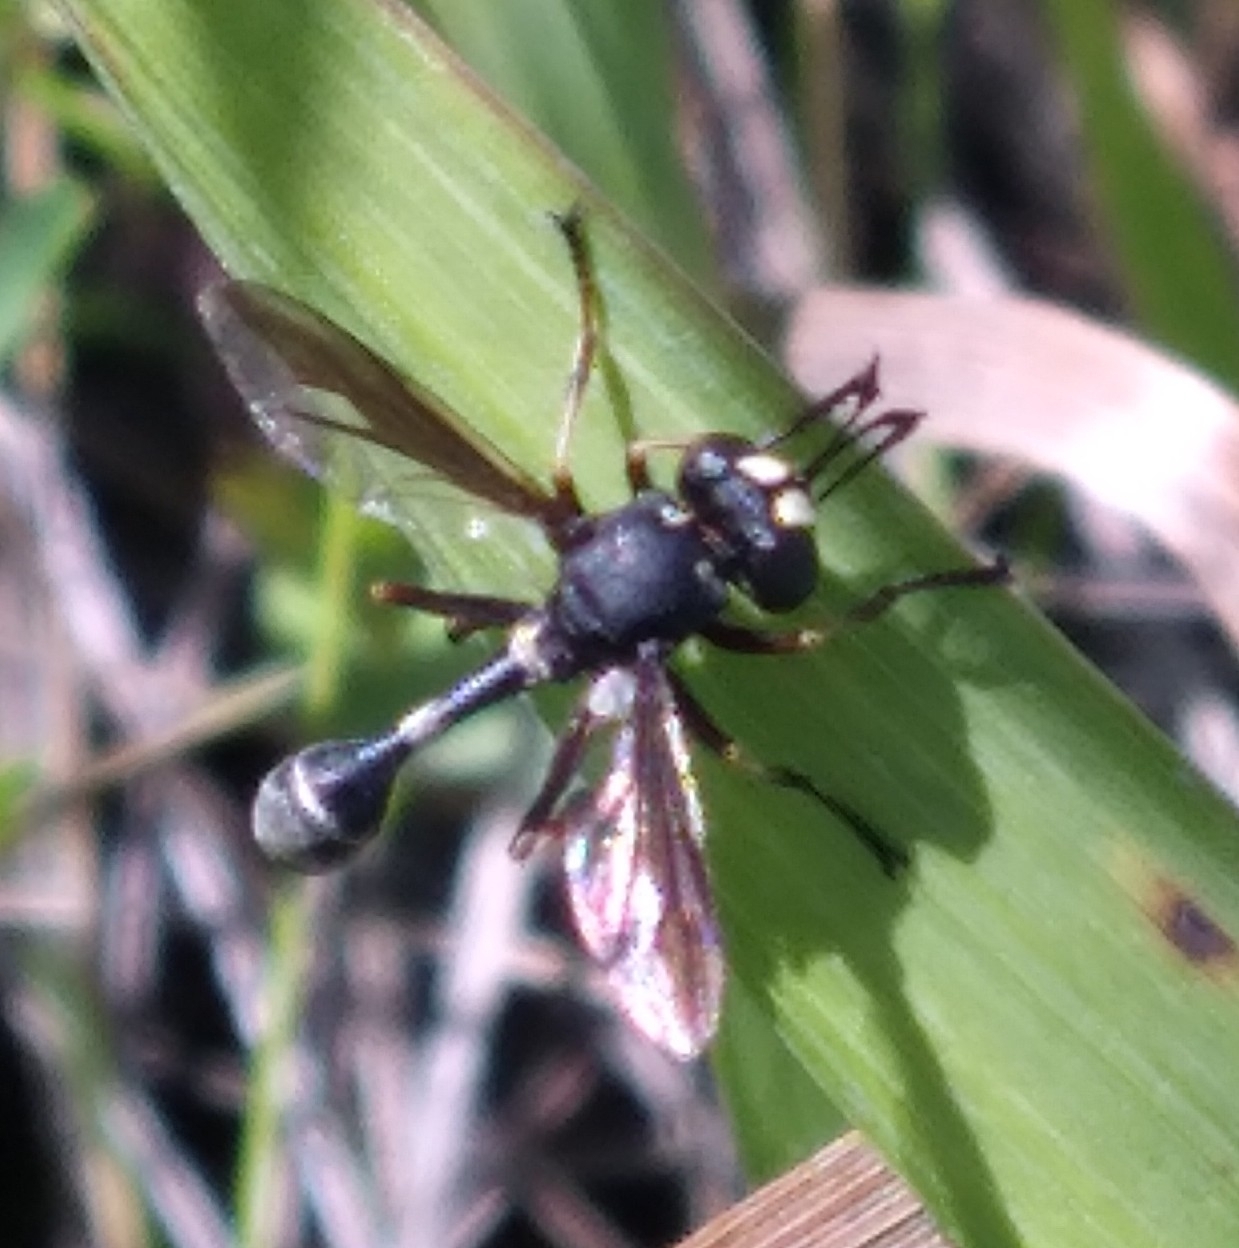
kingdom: Animalia
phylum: Arthropoda
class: Insecta
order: Diptera
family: Conopidae
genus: Physocephala
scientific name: Physocephala furcillata
